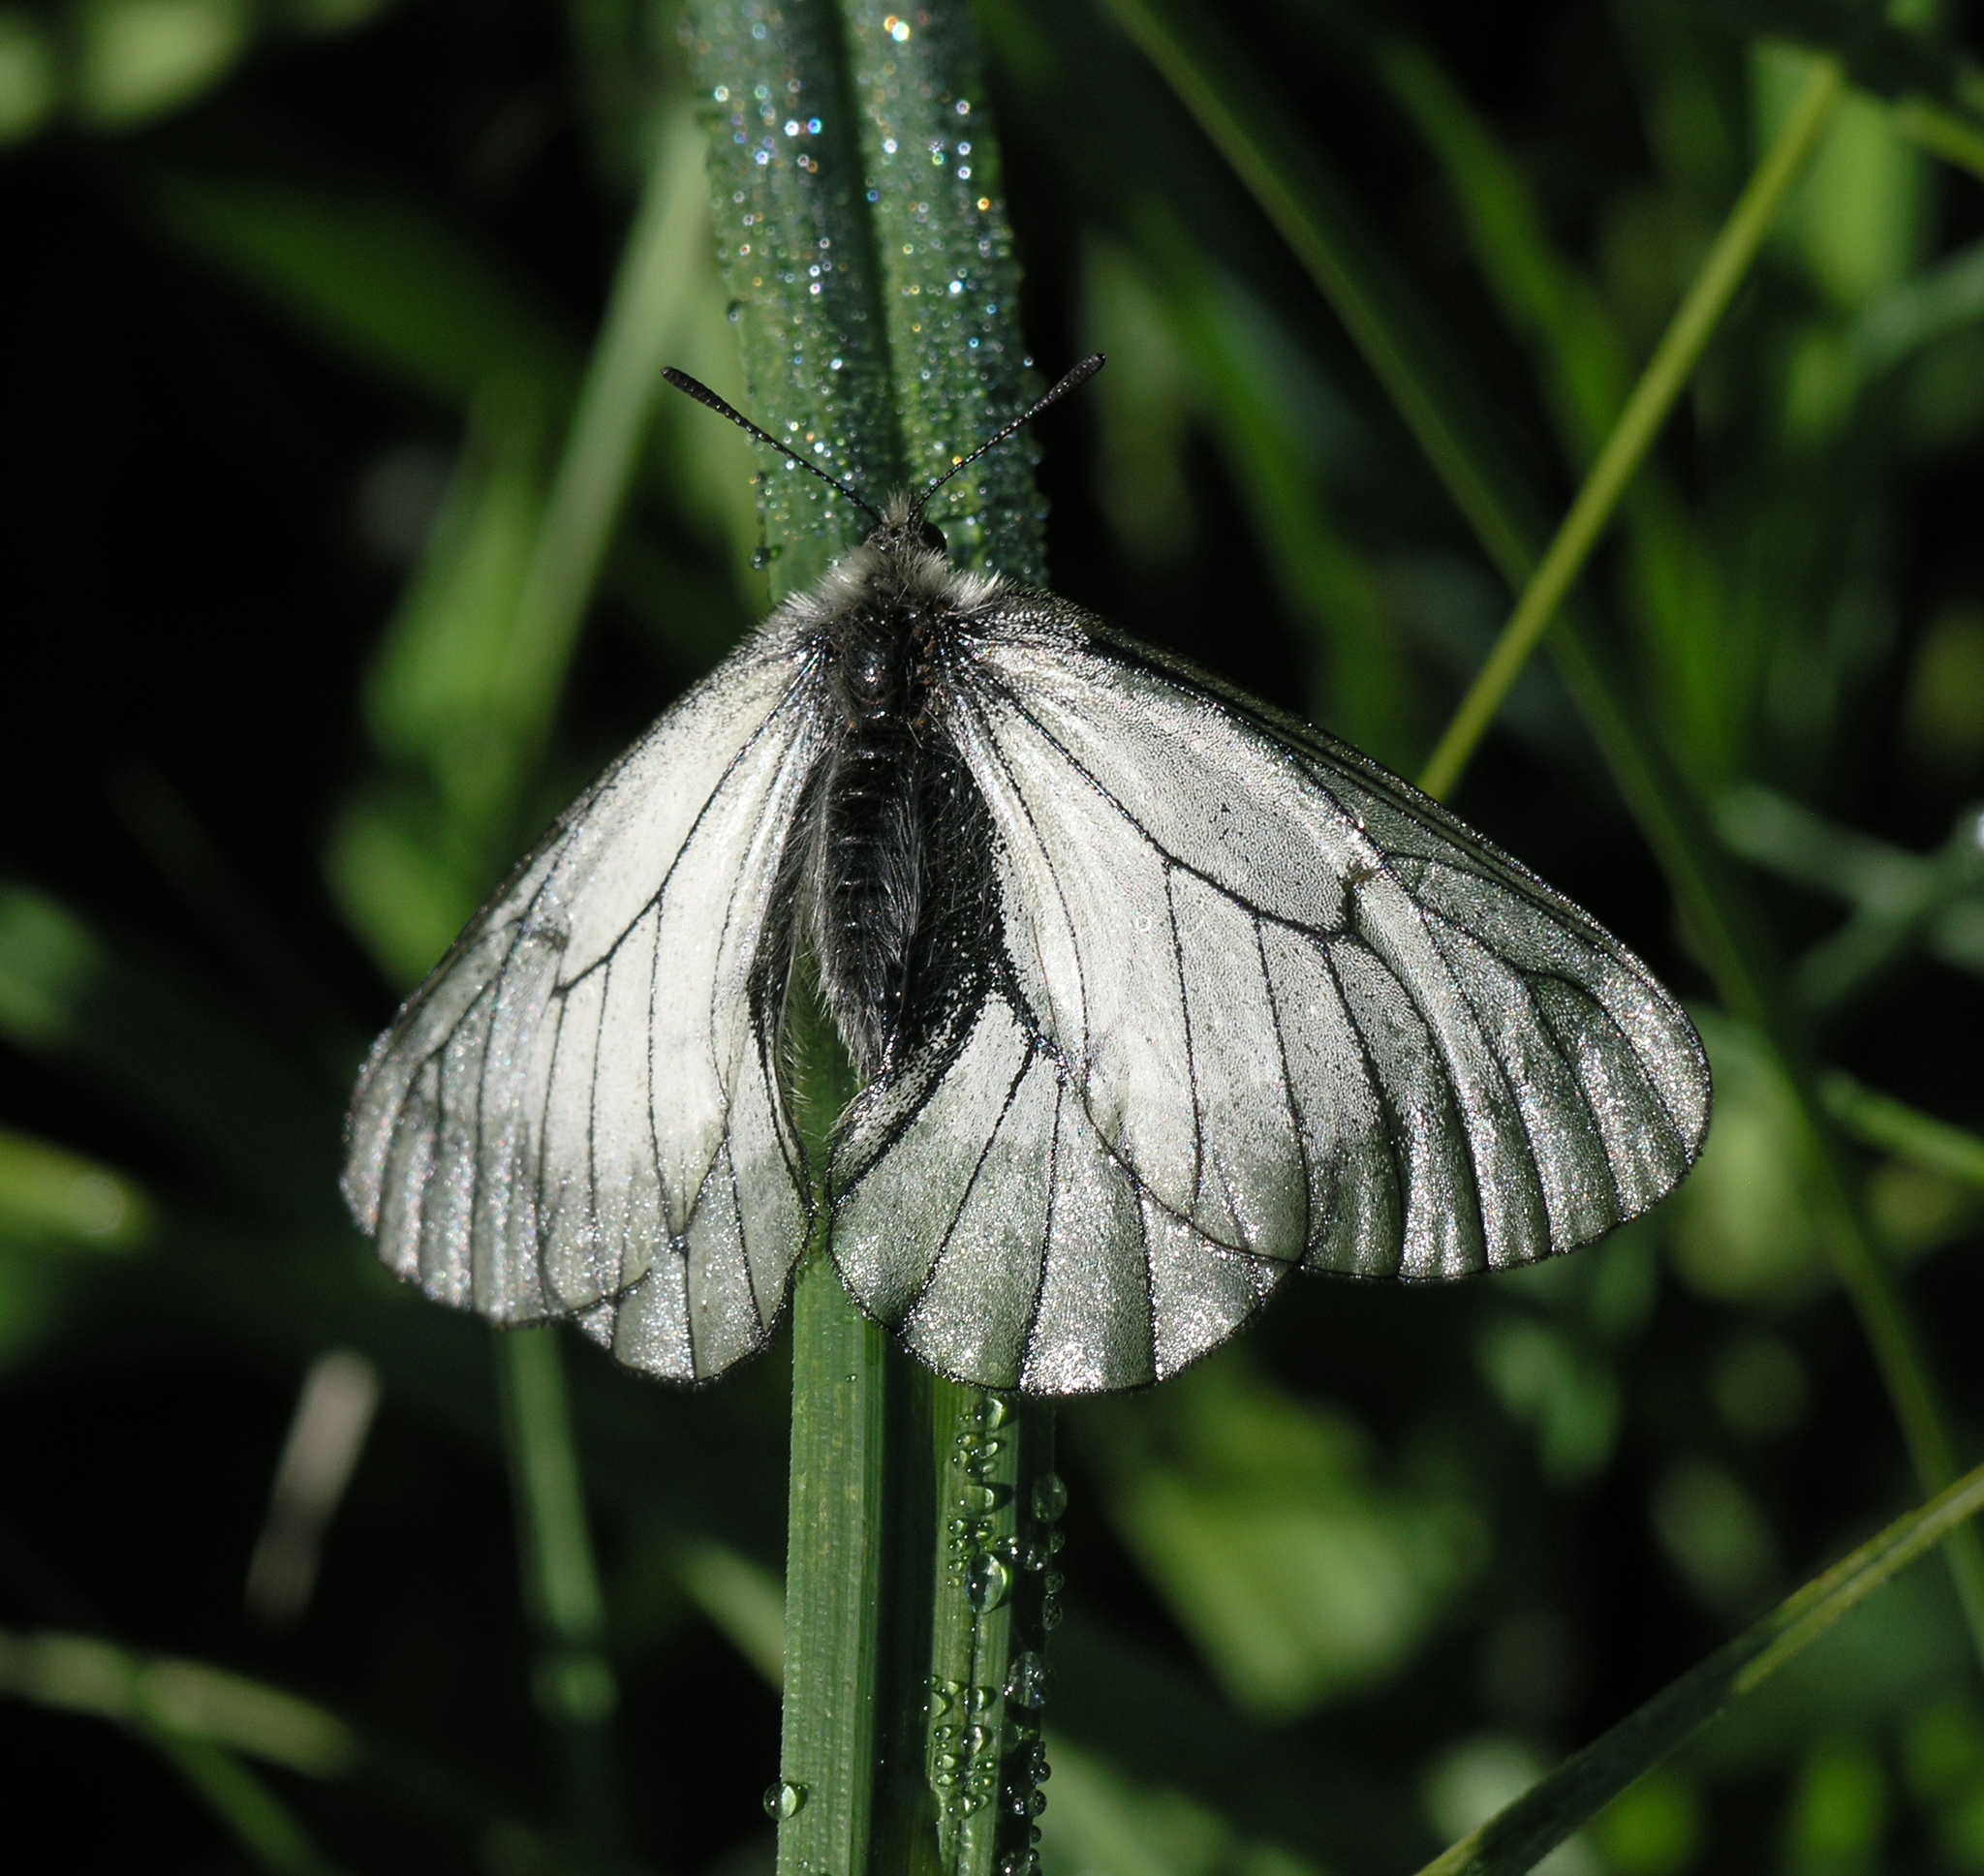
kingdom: Animalia
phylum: Arthropoda
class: Insecta
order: Lepidoptera
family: Papilionidae
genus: Parnassius
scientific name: Parnassius stubbendorfii
